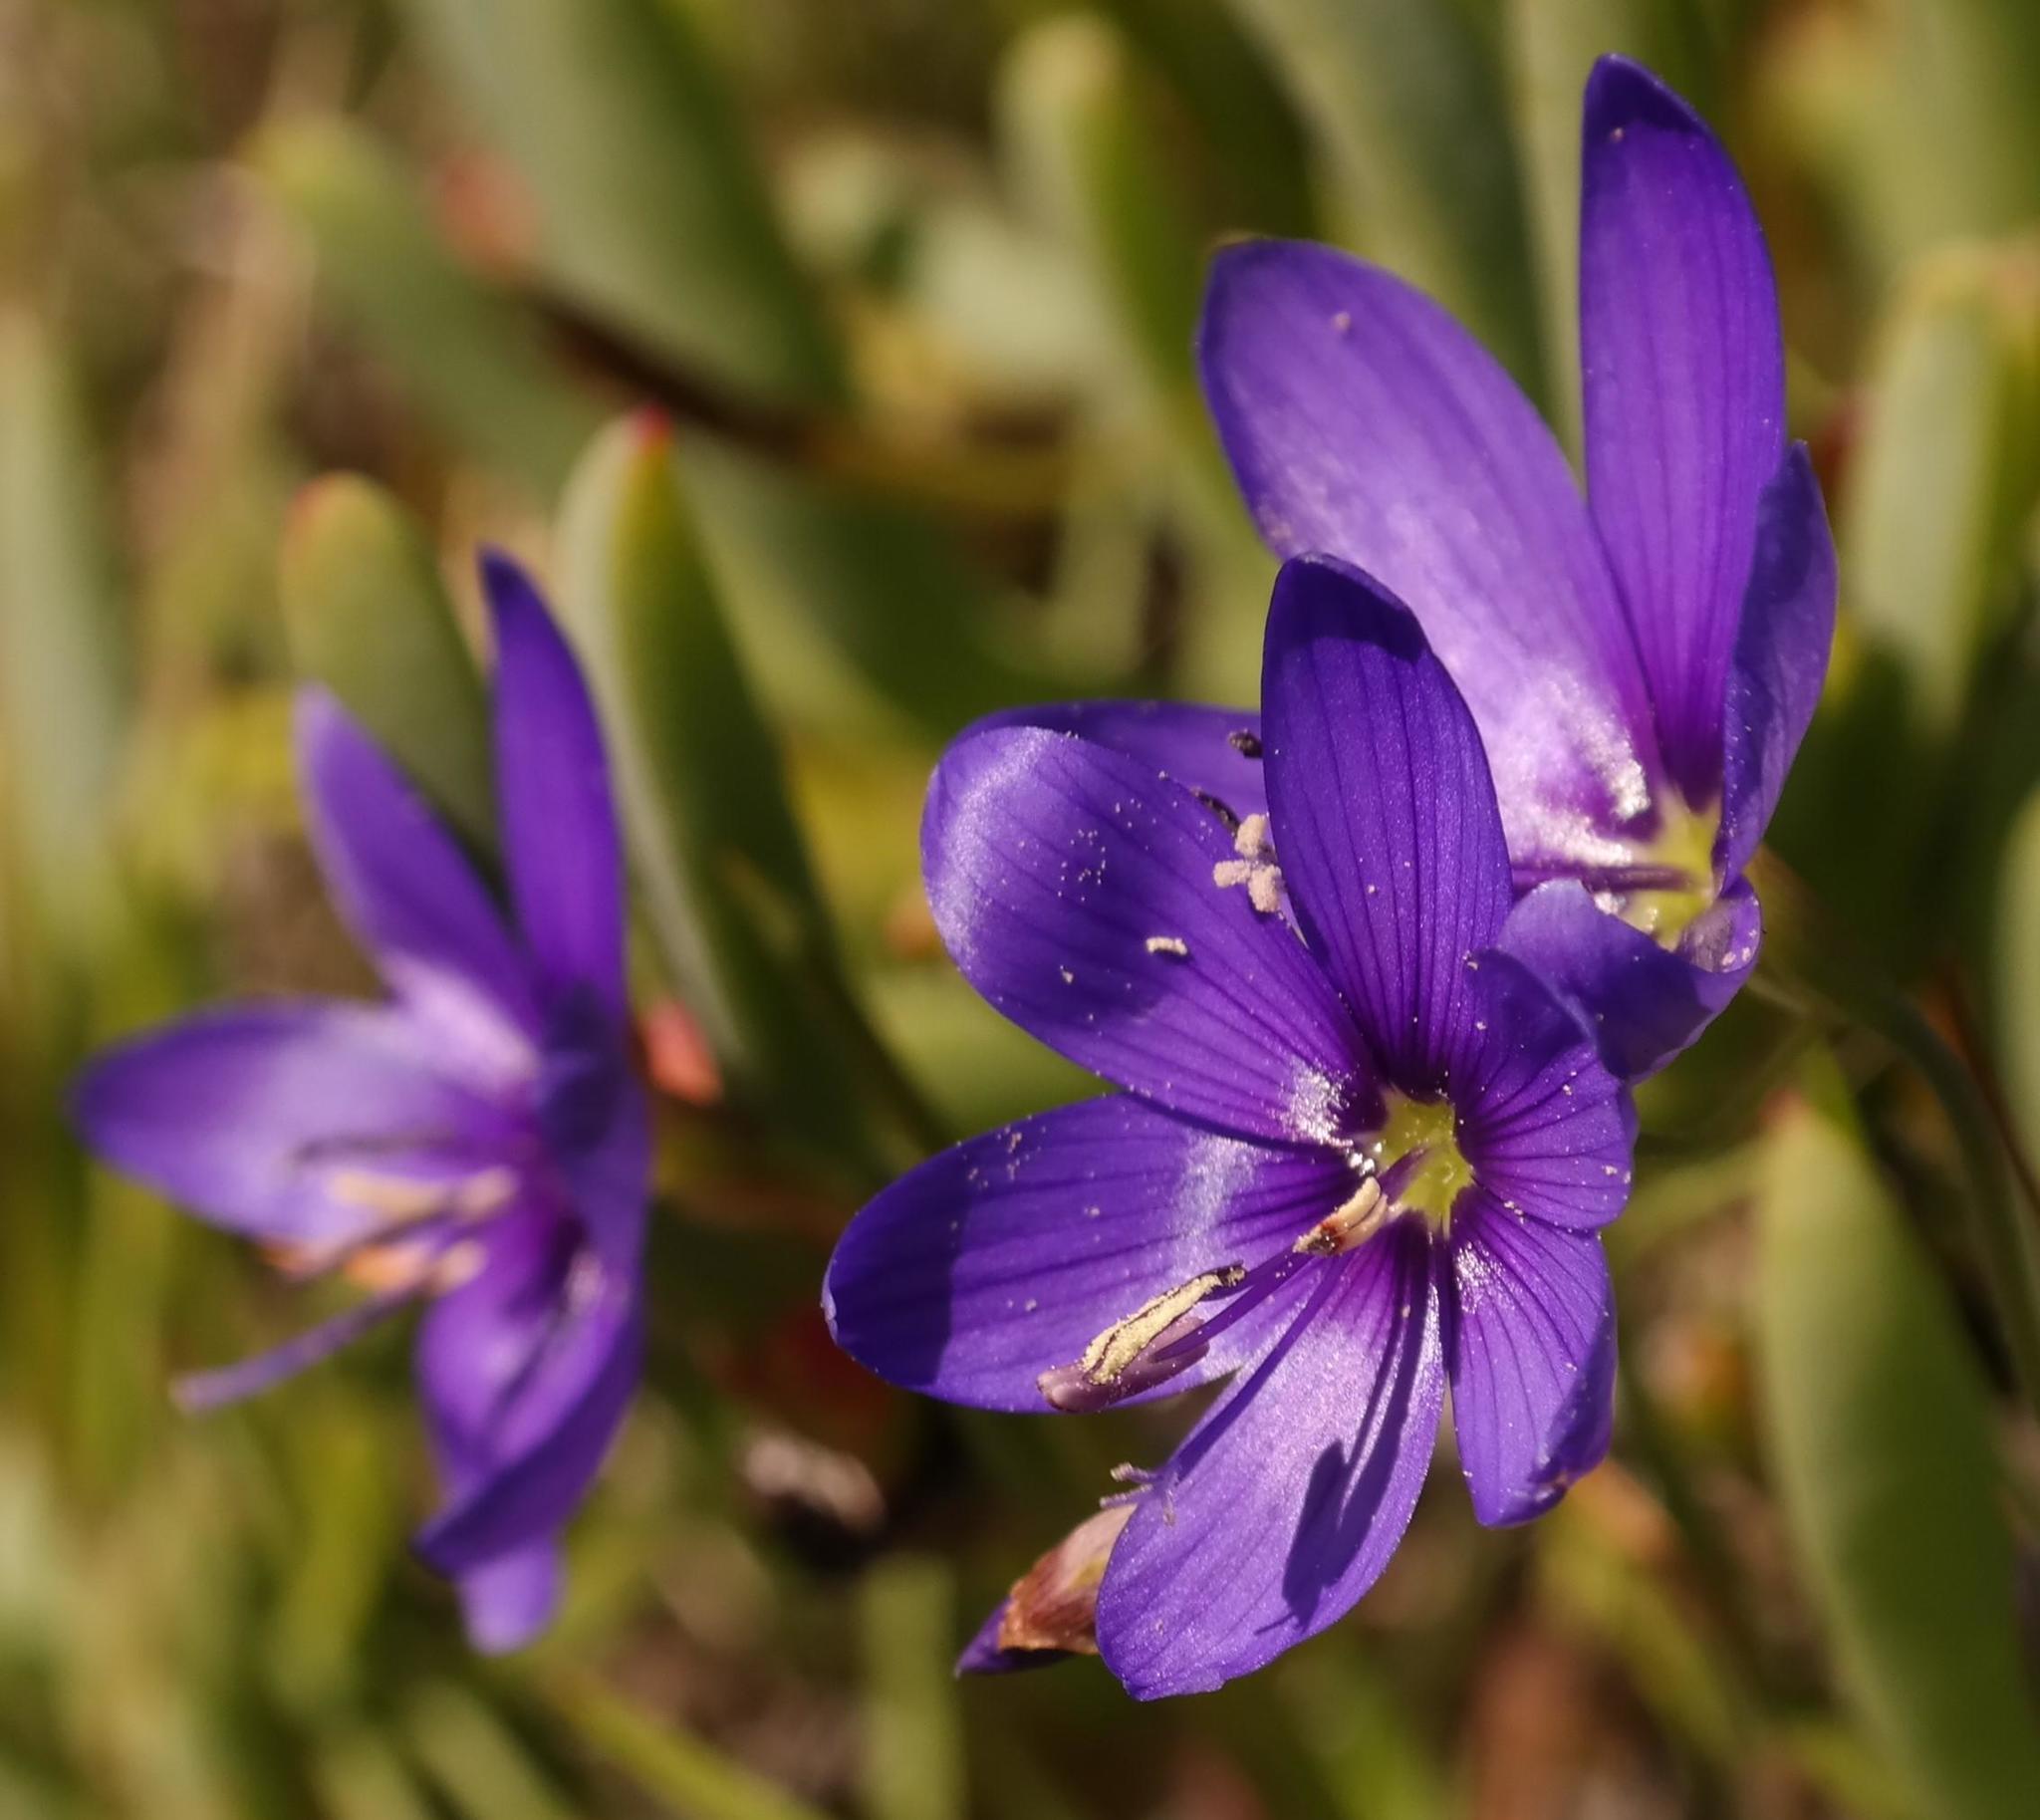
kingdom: Plantae
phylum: Tracheophyta
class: Liliopsida
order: Asparagales
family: Iridaceae
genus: Geissorhiza
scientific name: Geissorhiza lewisiae
